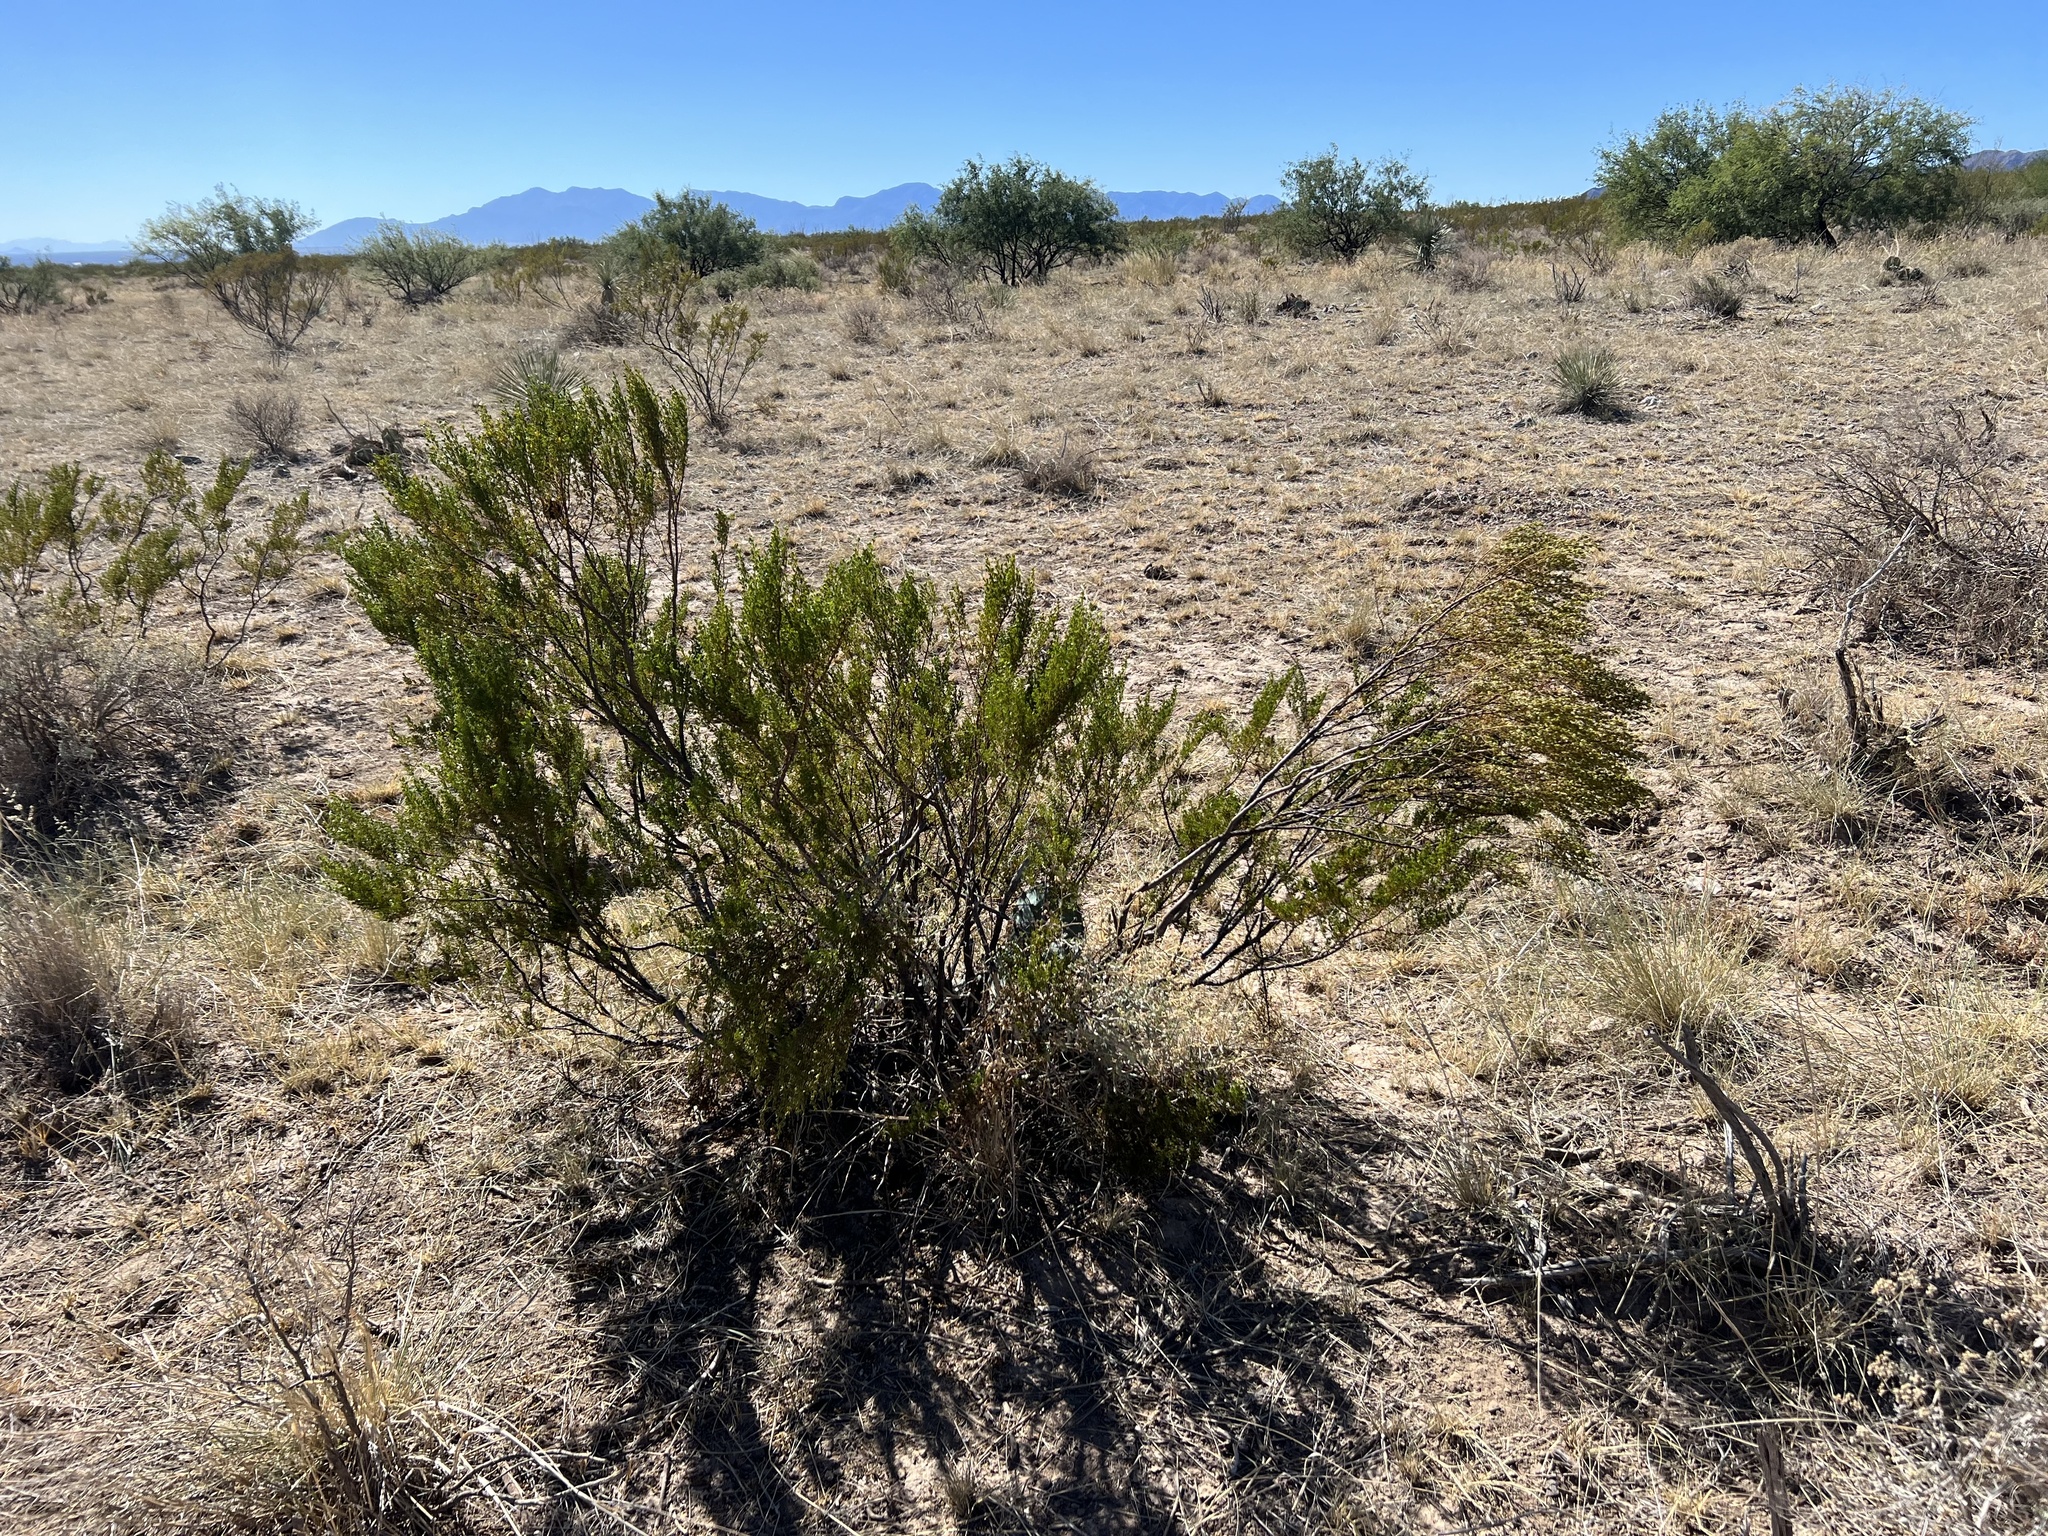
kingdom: Plantae
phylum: Tracheophyta
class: Magnoliopsida
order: Zygophyllales
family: Zygophyllaceae
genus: Larrea
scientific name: Larrea tridentata
